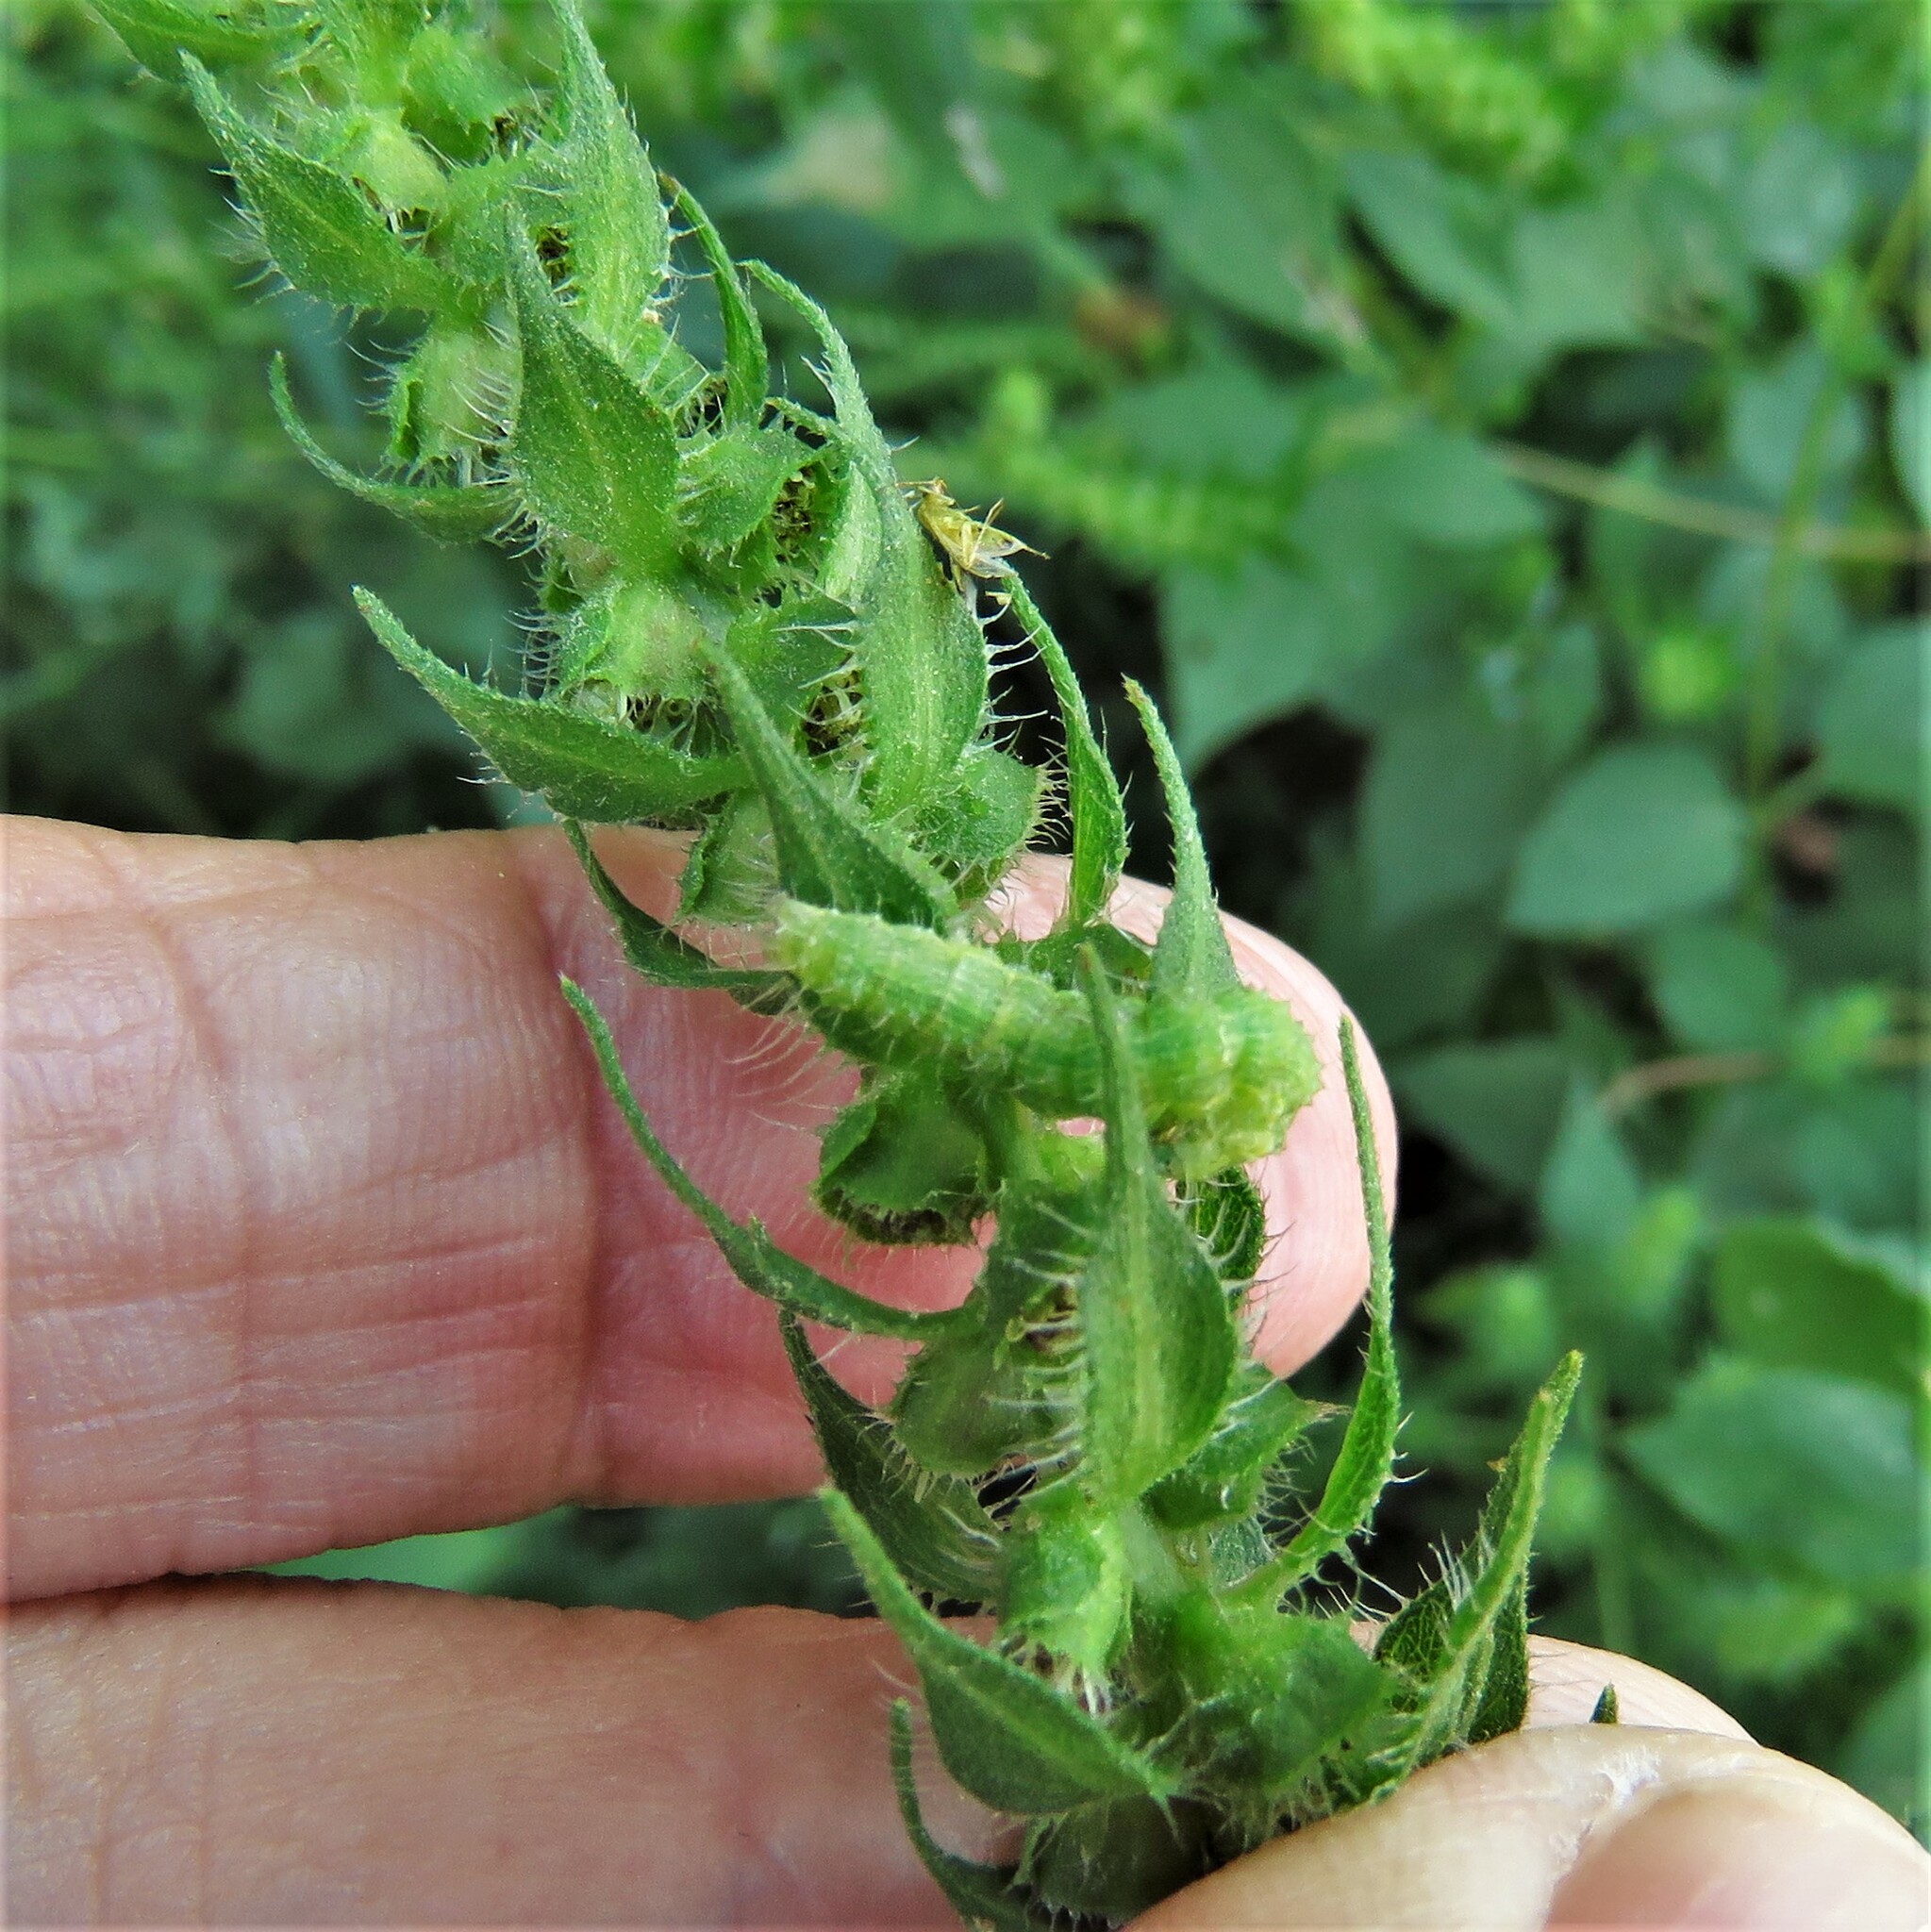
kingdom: Animalia
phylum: Arthropoda
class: Insecta
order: Lepidoptera
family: Noctuidae
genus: Schinia
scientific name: Schinia gracilenta
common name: Slender flower moth
